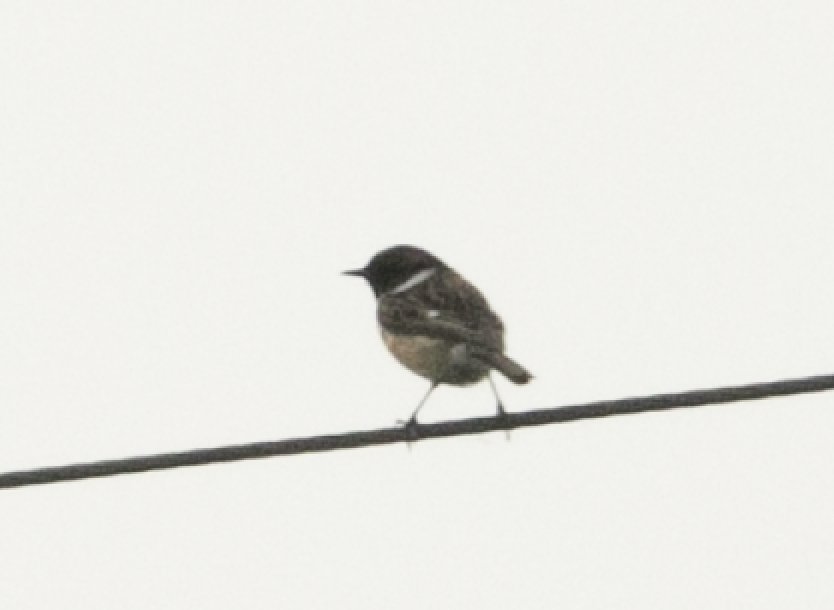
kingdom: Animalia
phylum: Chordata
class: Aves
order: Passeriformes
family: Muscicapidae
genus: Saxicola
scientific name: Saxicola rubicola
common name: European stonechat
